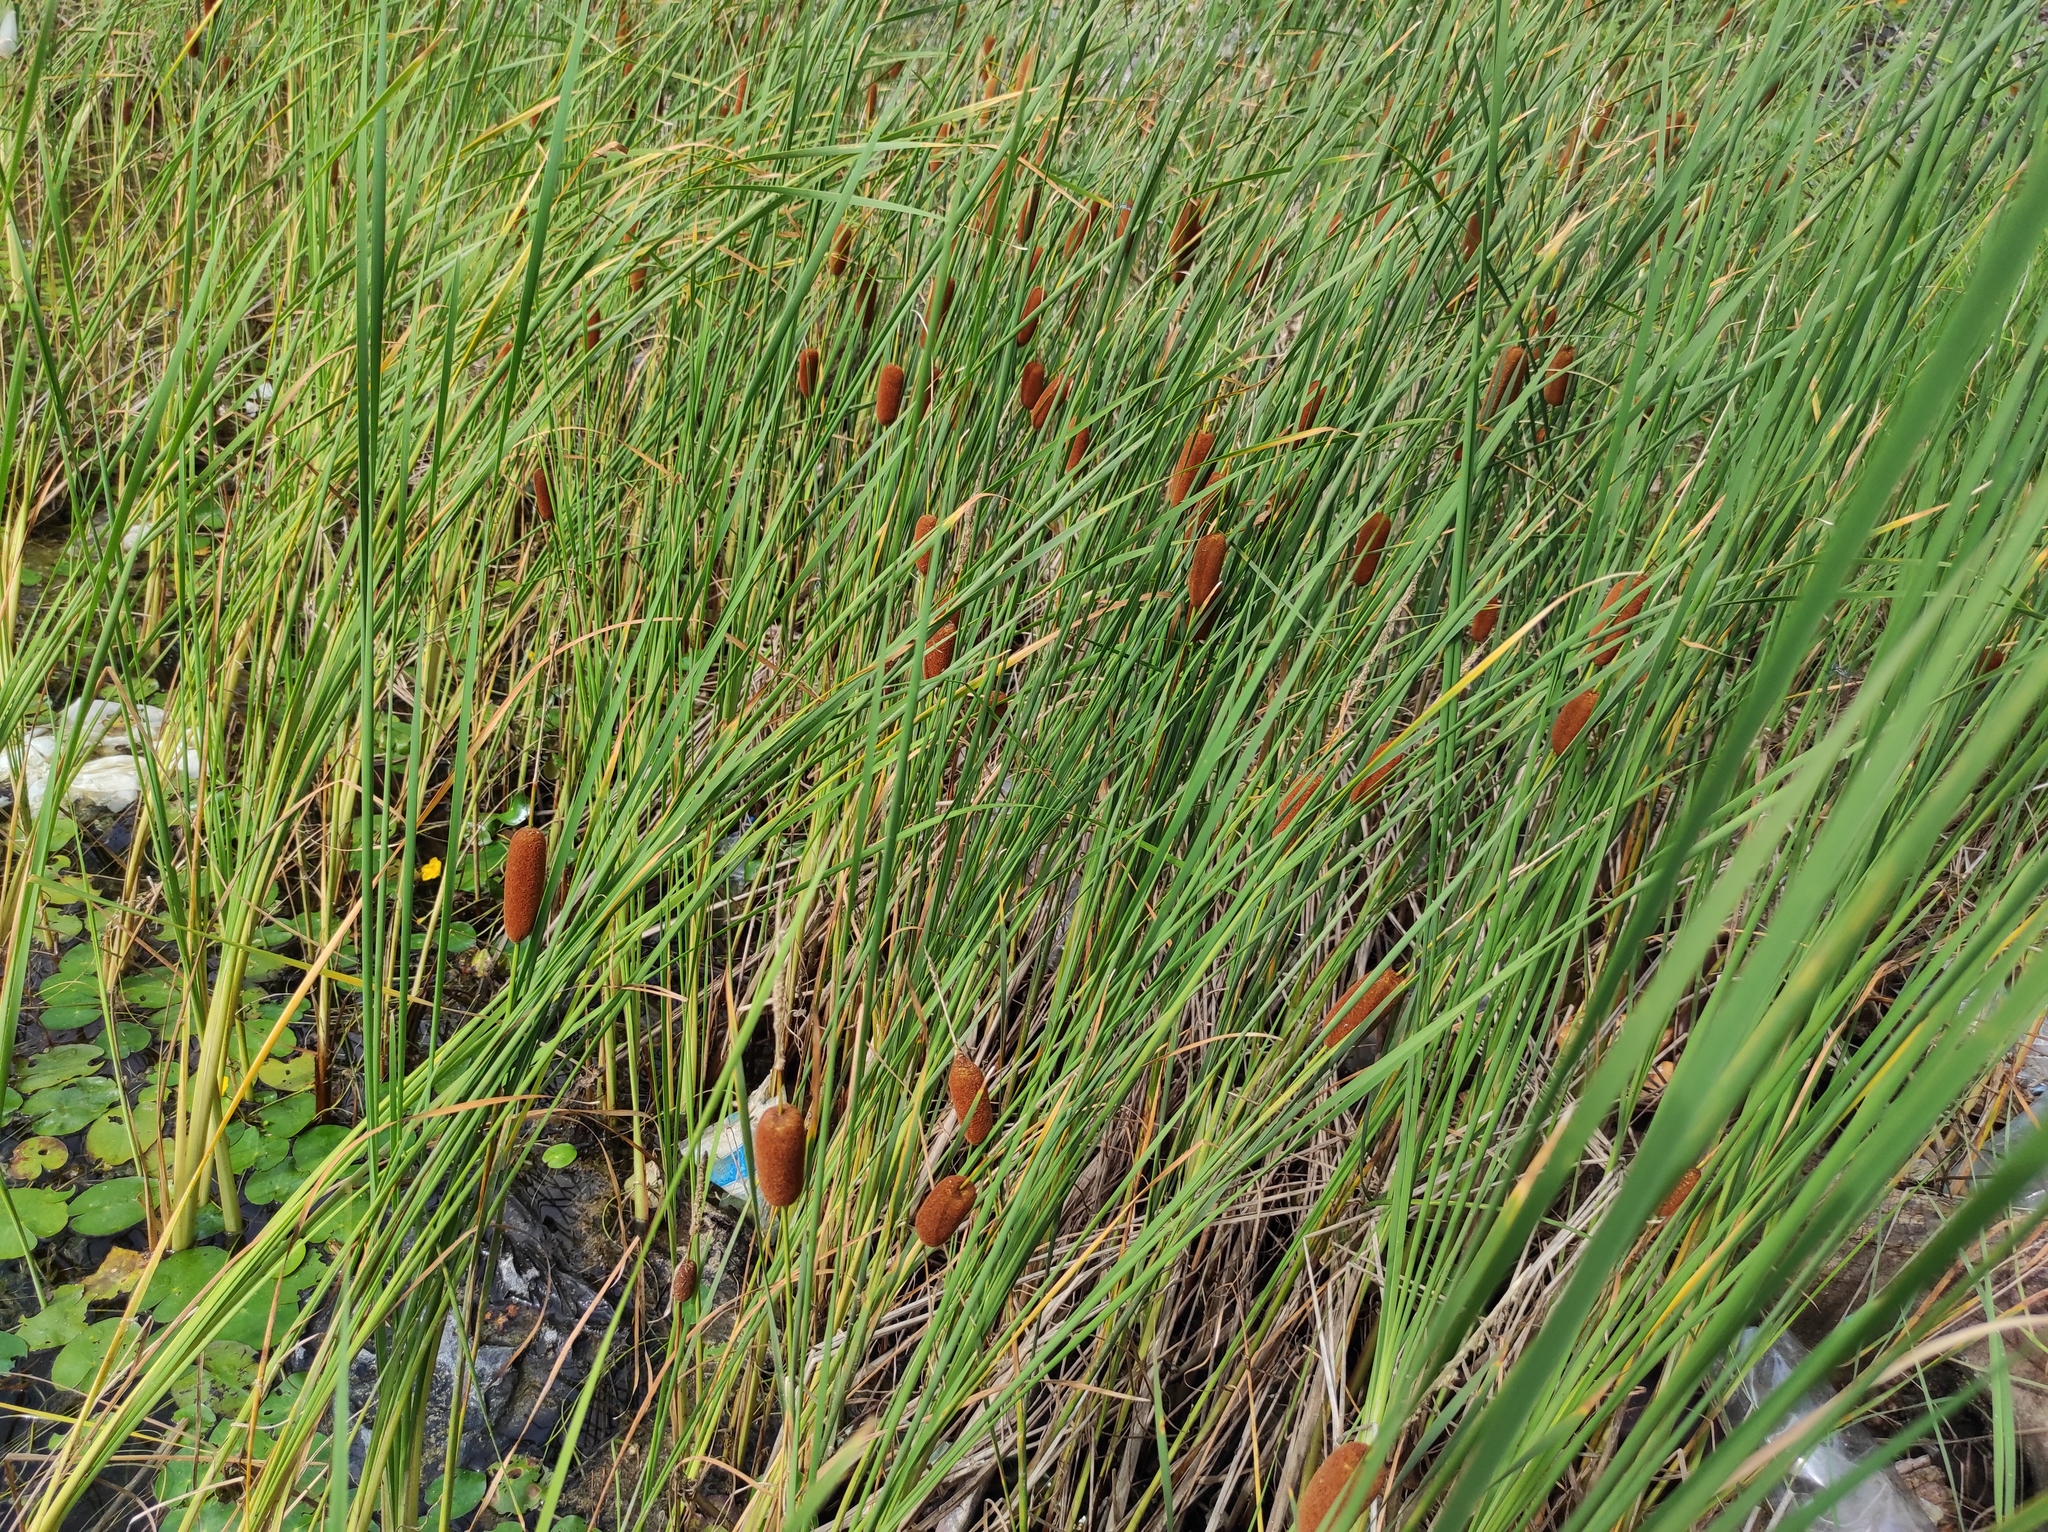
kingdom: Plantae
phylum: Tracheophyta
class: Liliopsida
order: Poales
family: Typhaceae
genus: Typha
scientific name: Typha laxmannii
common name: Laxman’s bulrush
